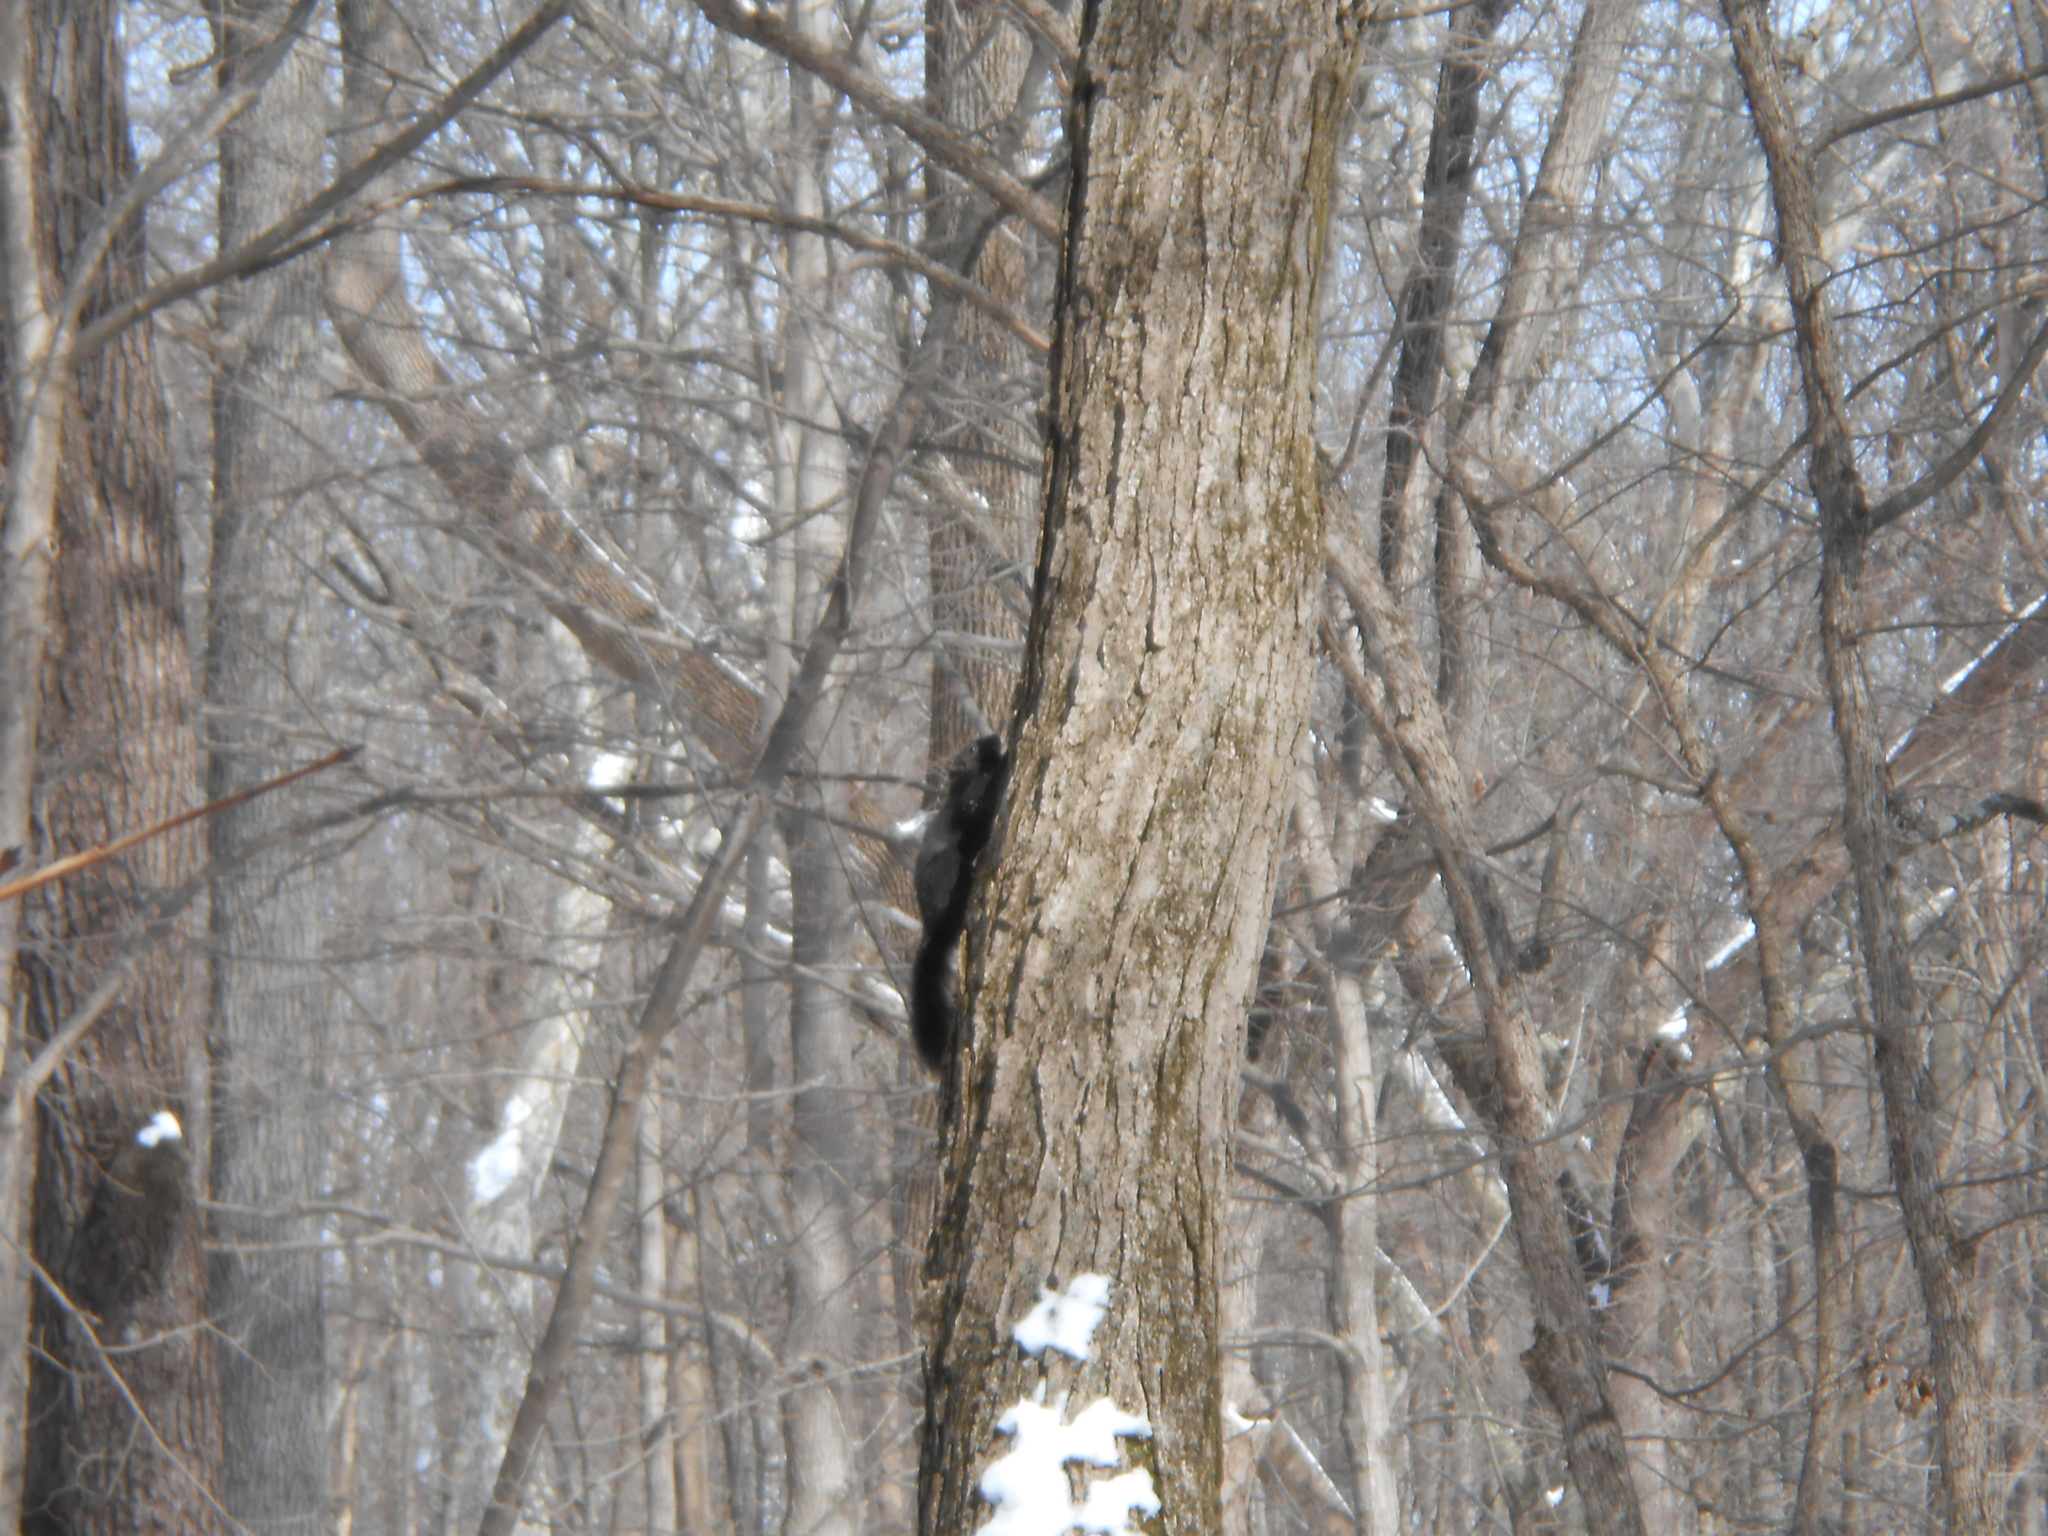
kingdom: Animalia
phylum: Chordata
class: Mammalia
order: Rodentia
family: Sciuridae
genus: Sciurus
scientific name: Sciurus carolinensis
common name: Eastern gray squirrel
